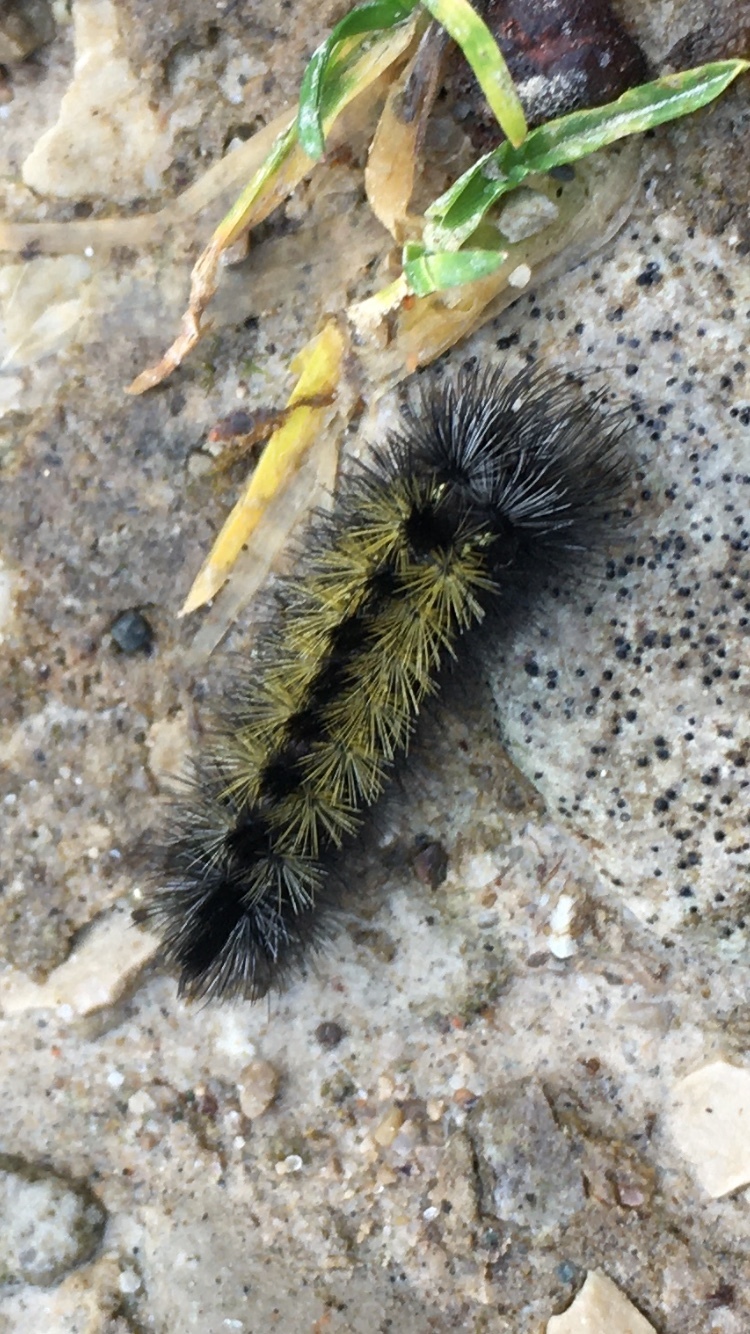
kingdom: Animalia
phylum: Arthropoda
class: Insecta
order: Lepidoptera
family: Erebidae
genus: Ctenucha
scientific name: Ctenucha virginica
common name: Virginia ctenucha moth
